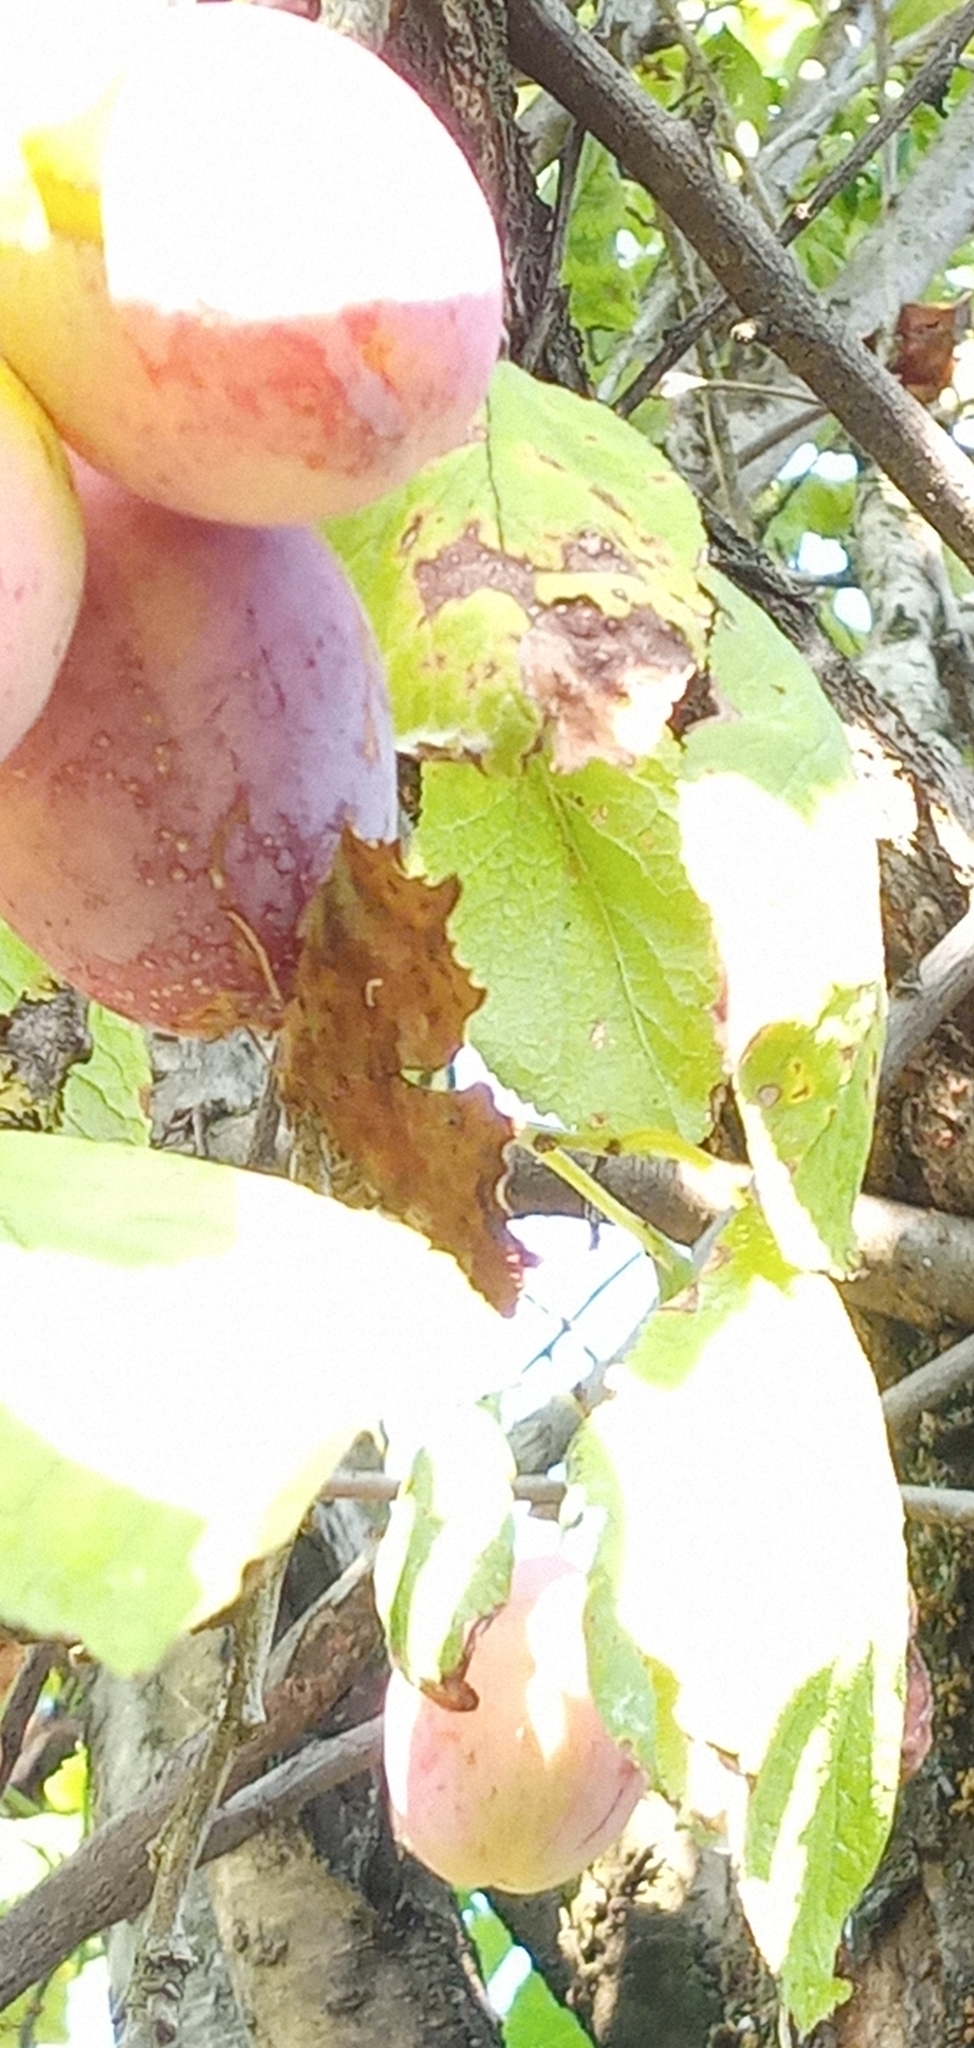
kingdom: Animalia
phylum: Arthropoda
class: Insecta
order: Lepidoptera
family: Nymphalidae
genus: Polygonia
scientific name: Polygonia c-album
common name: Comma
